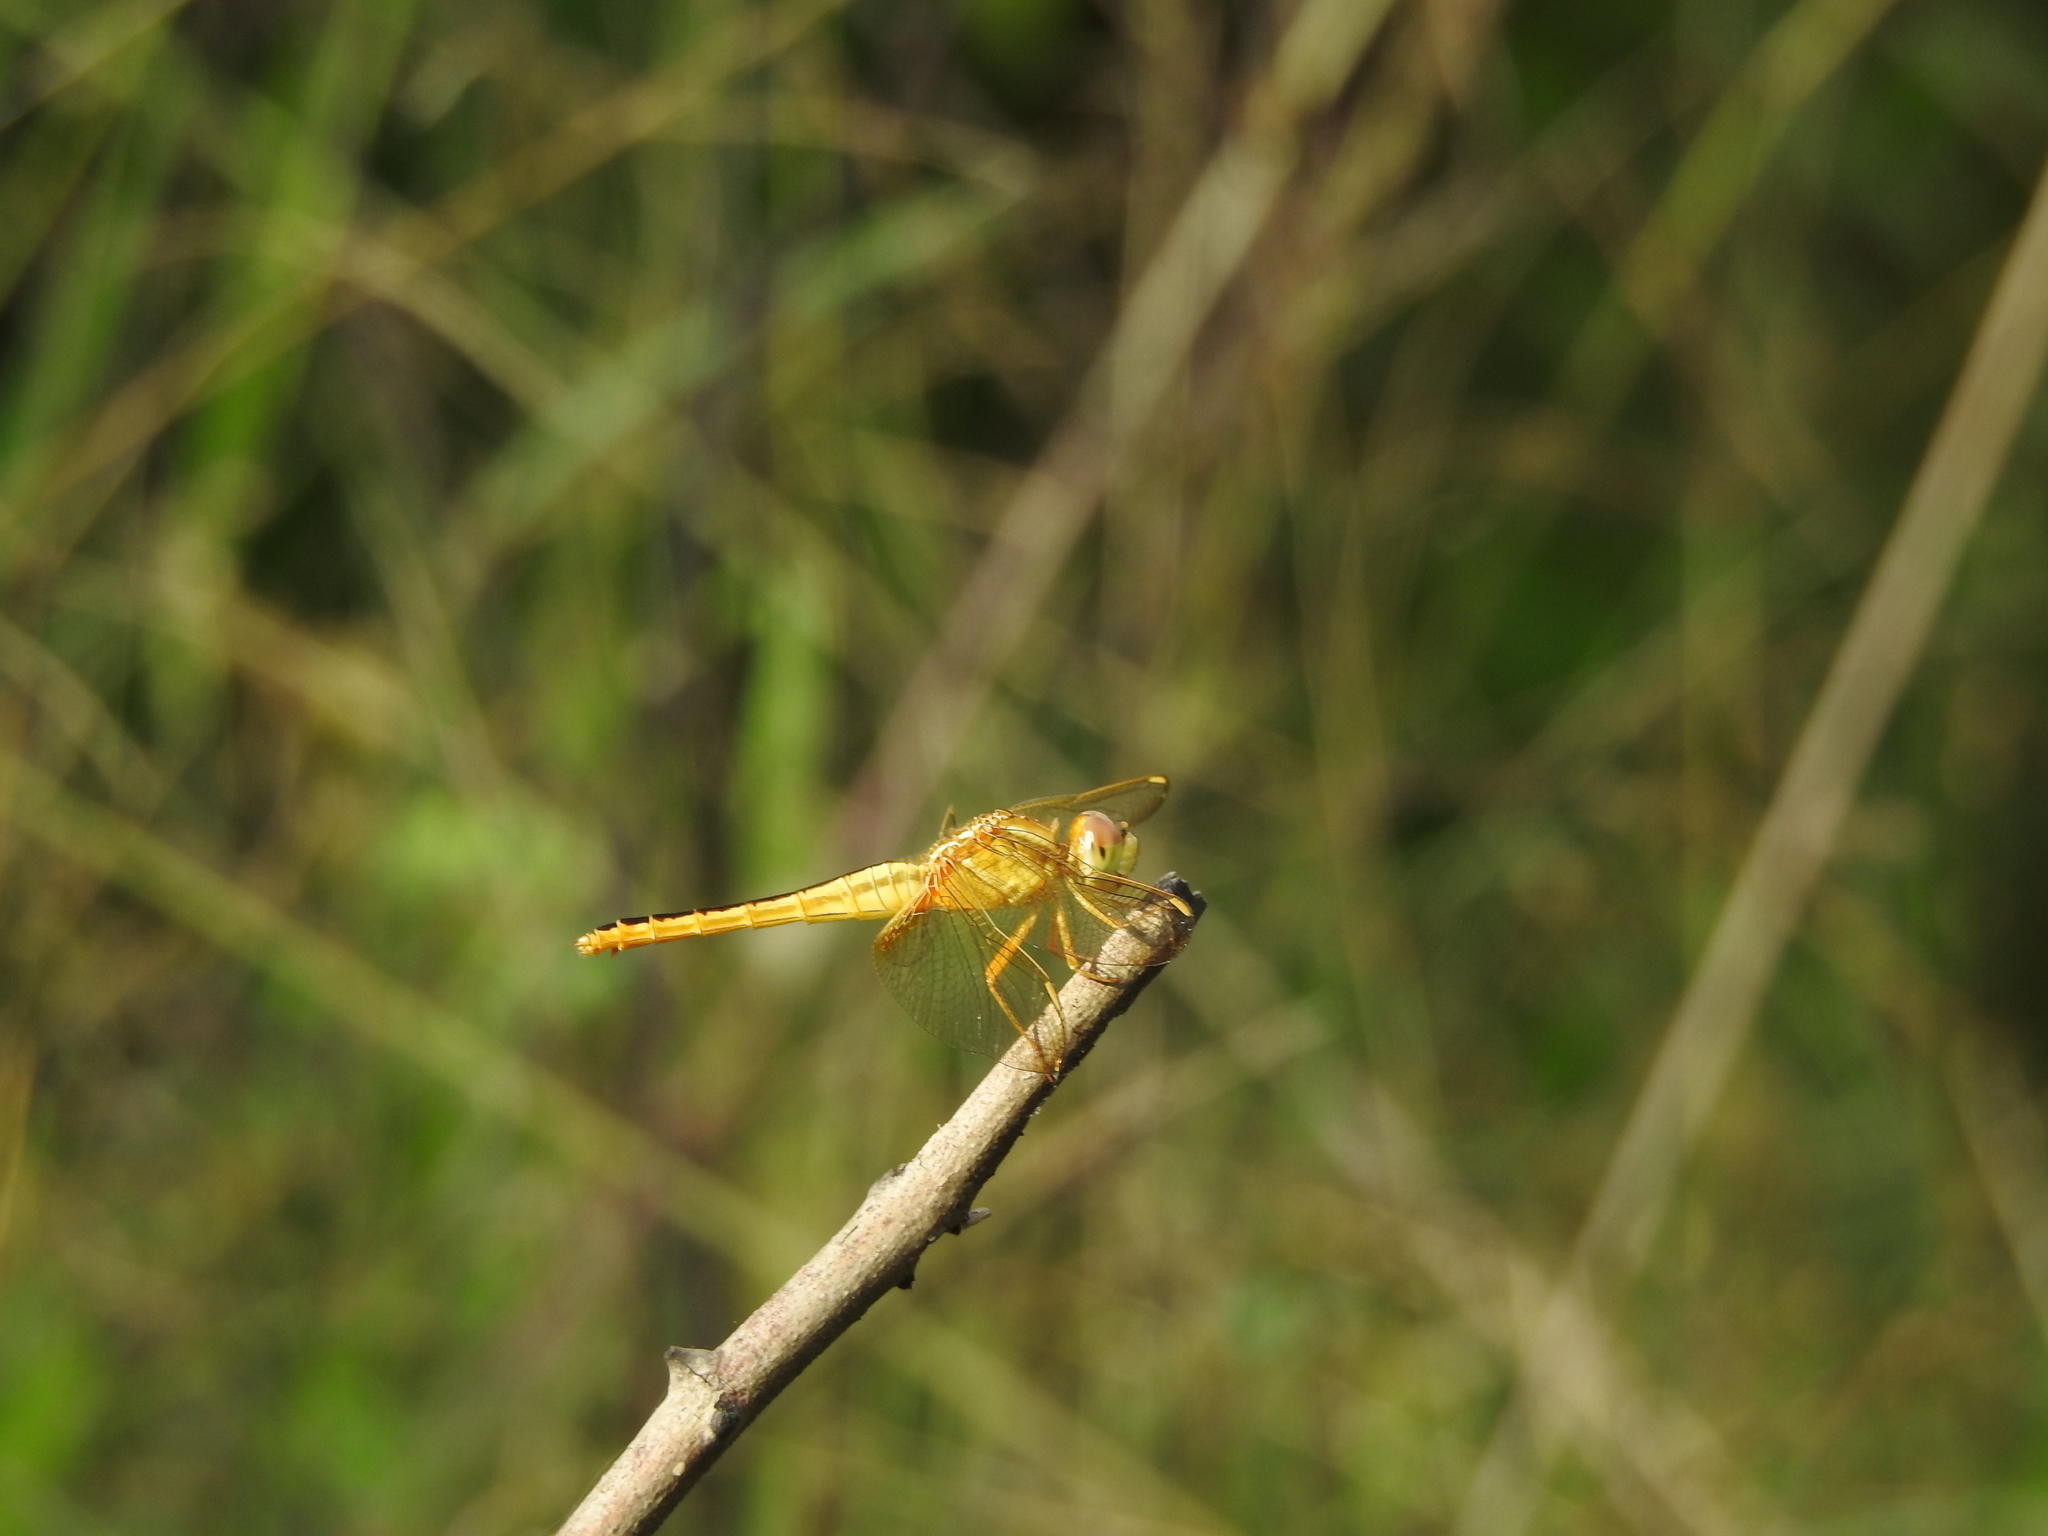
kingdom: Animalia
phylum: Arthropoda
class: Insecta
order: Odonata
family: Libellulidae
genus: Crocothemis
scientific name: Crocothemis servilia
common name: Scarlet skimmer
